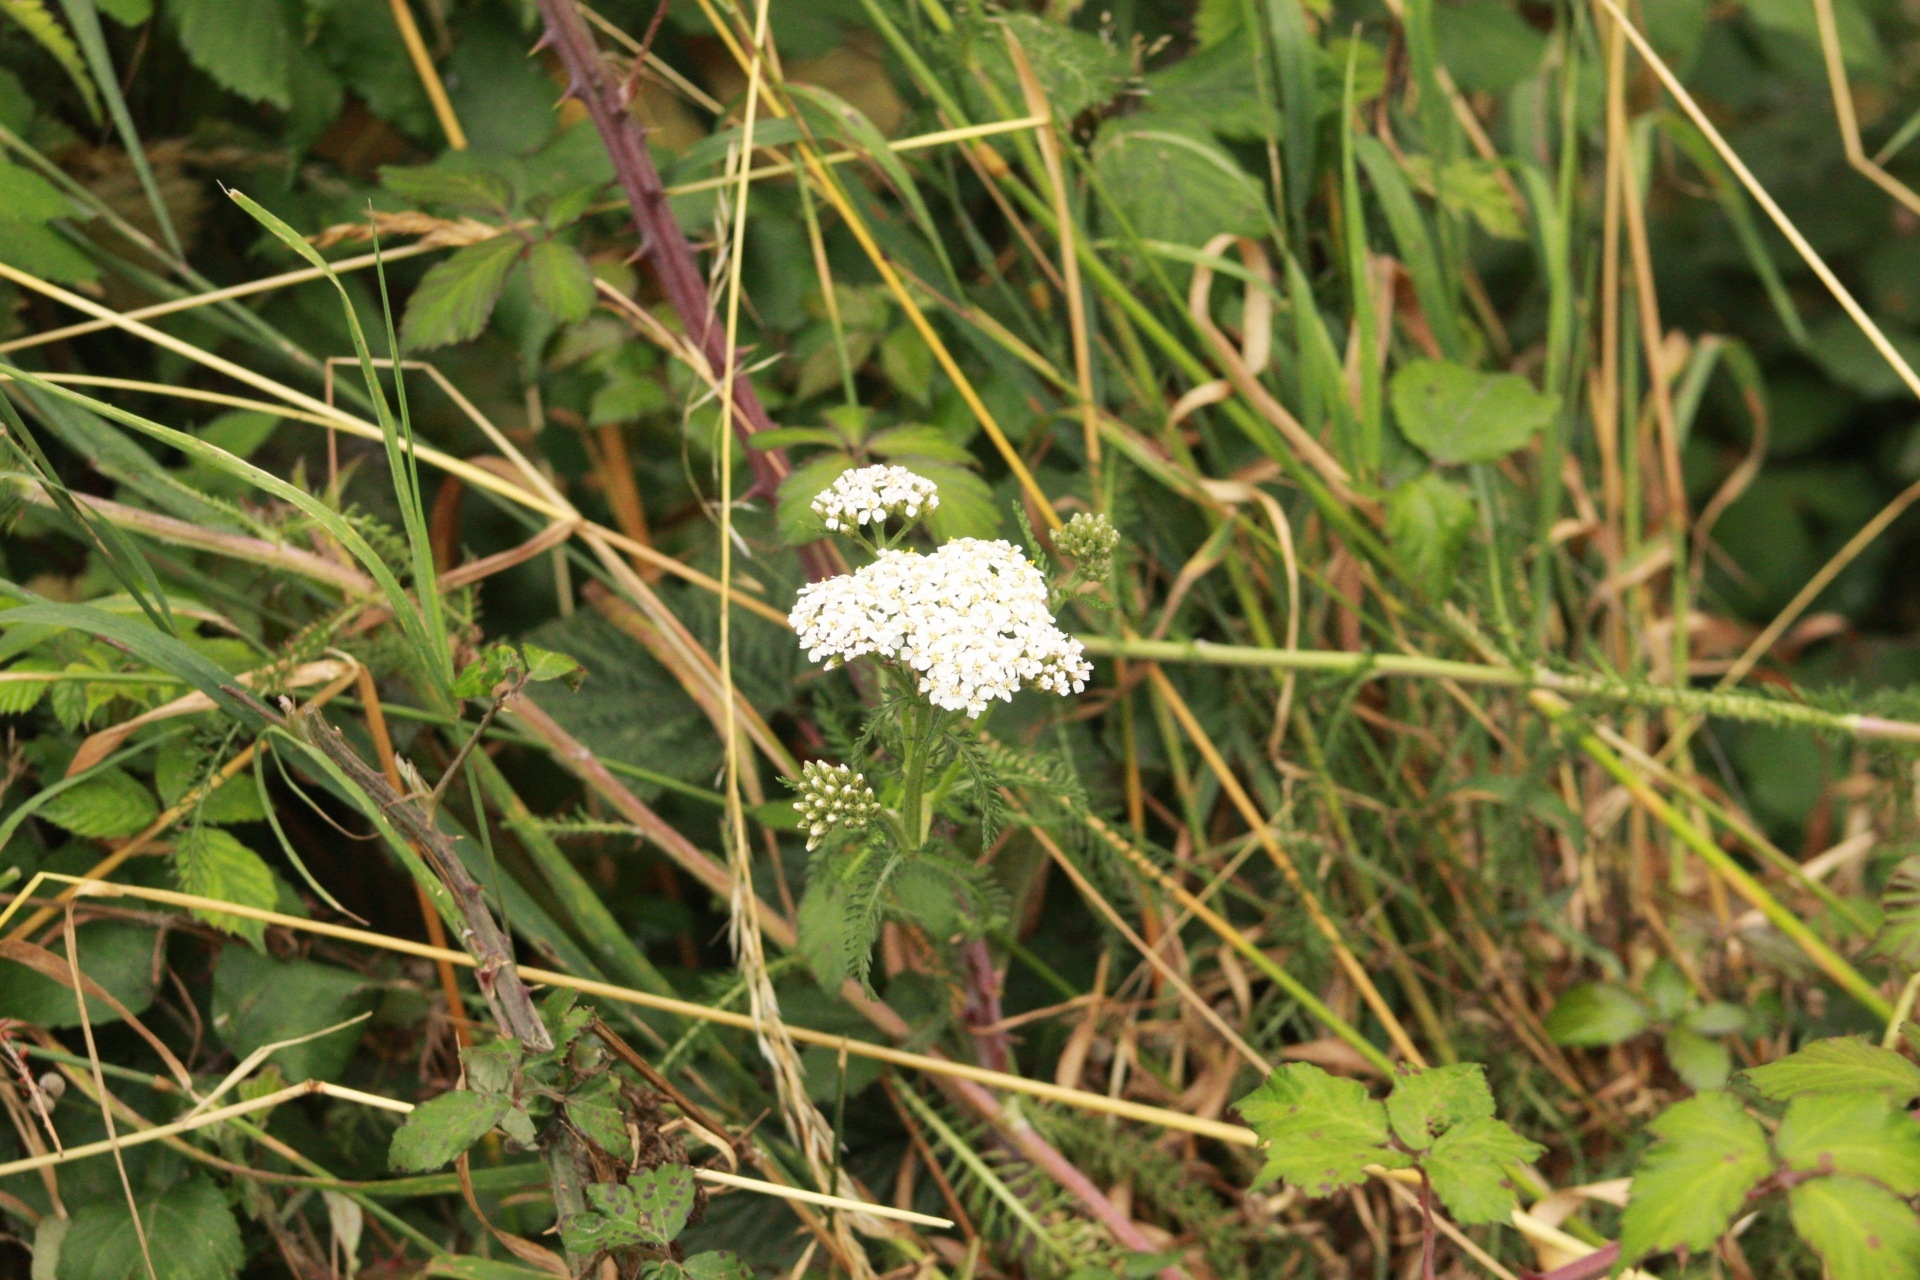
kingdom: Plantae
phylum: Tracheophyta
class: Magnoliopsida
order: Asterales
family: Asteraceae
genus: Achillea
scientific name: Achillea millefolium
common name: Yarrow
